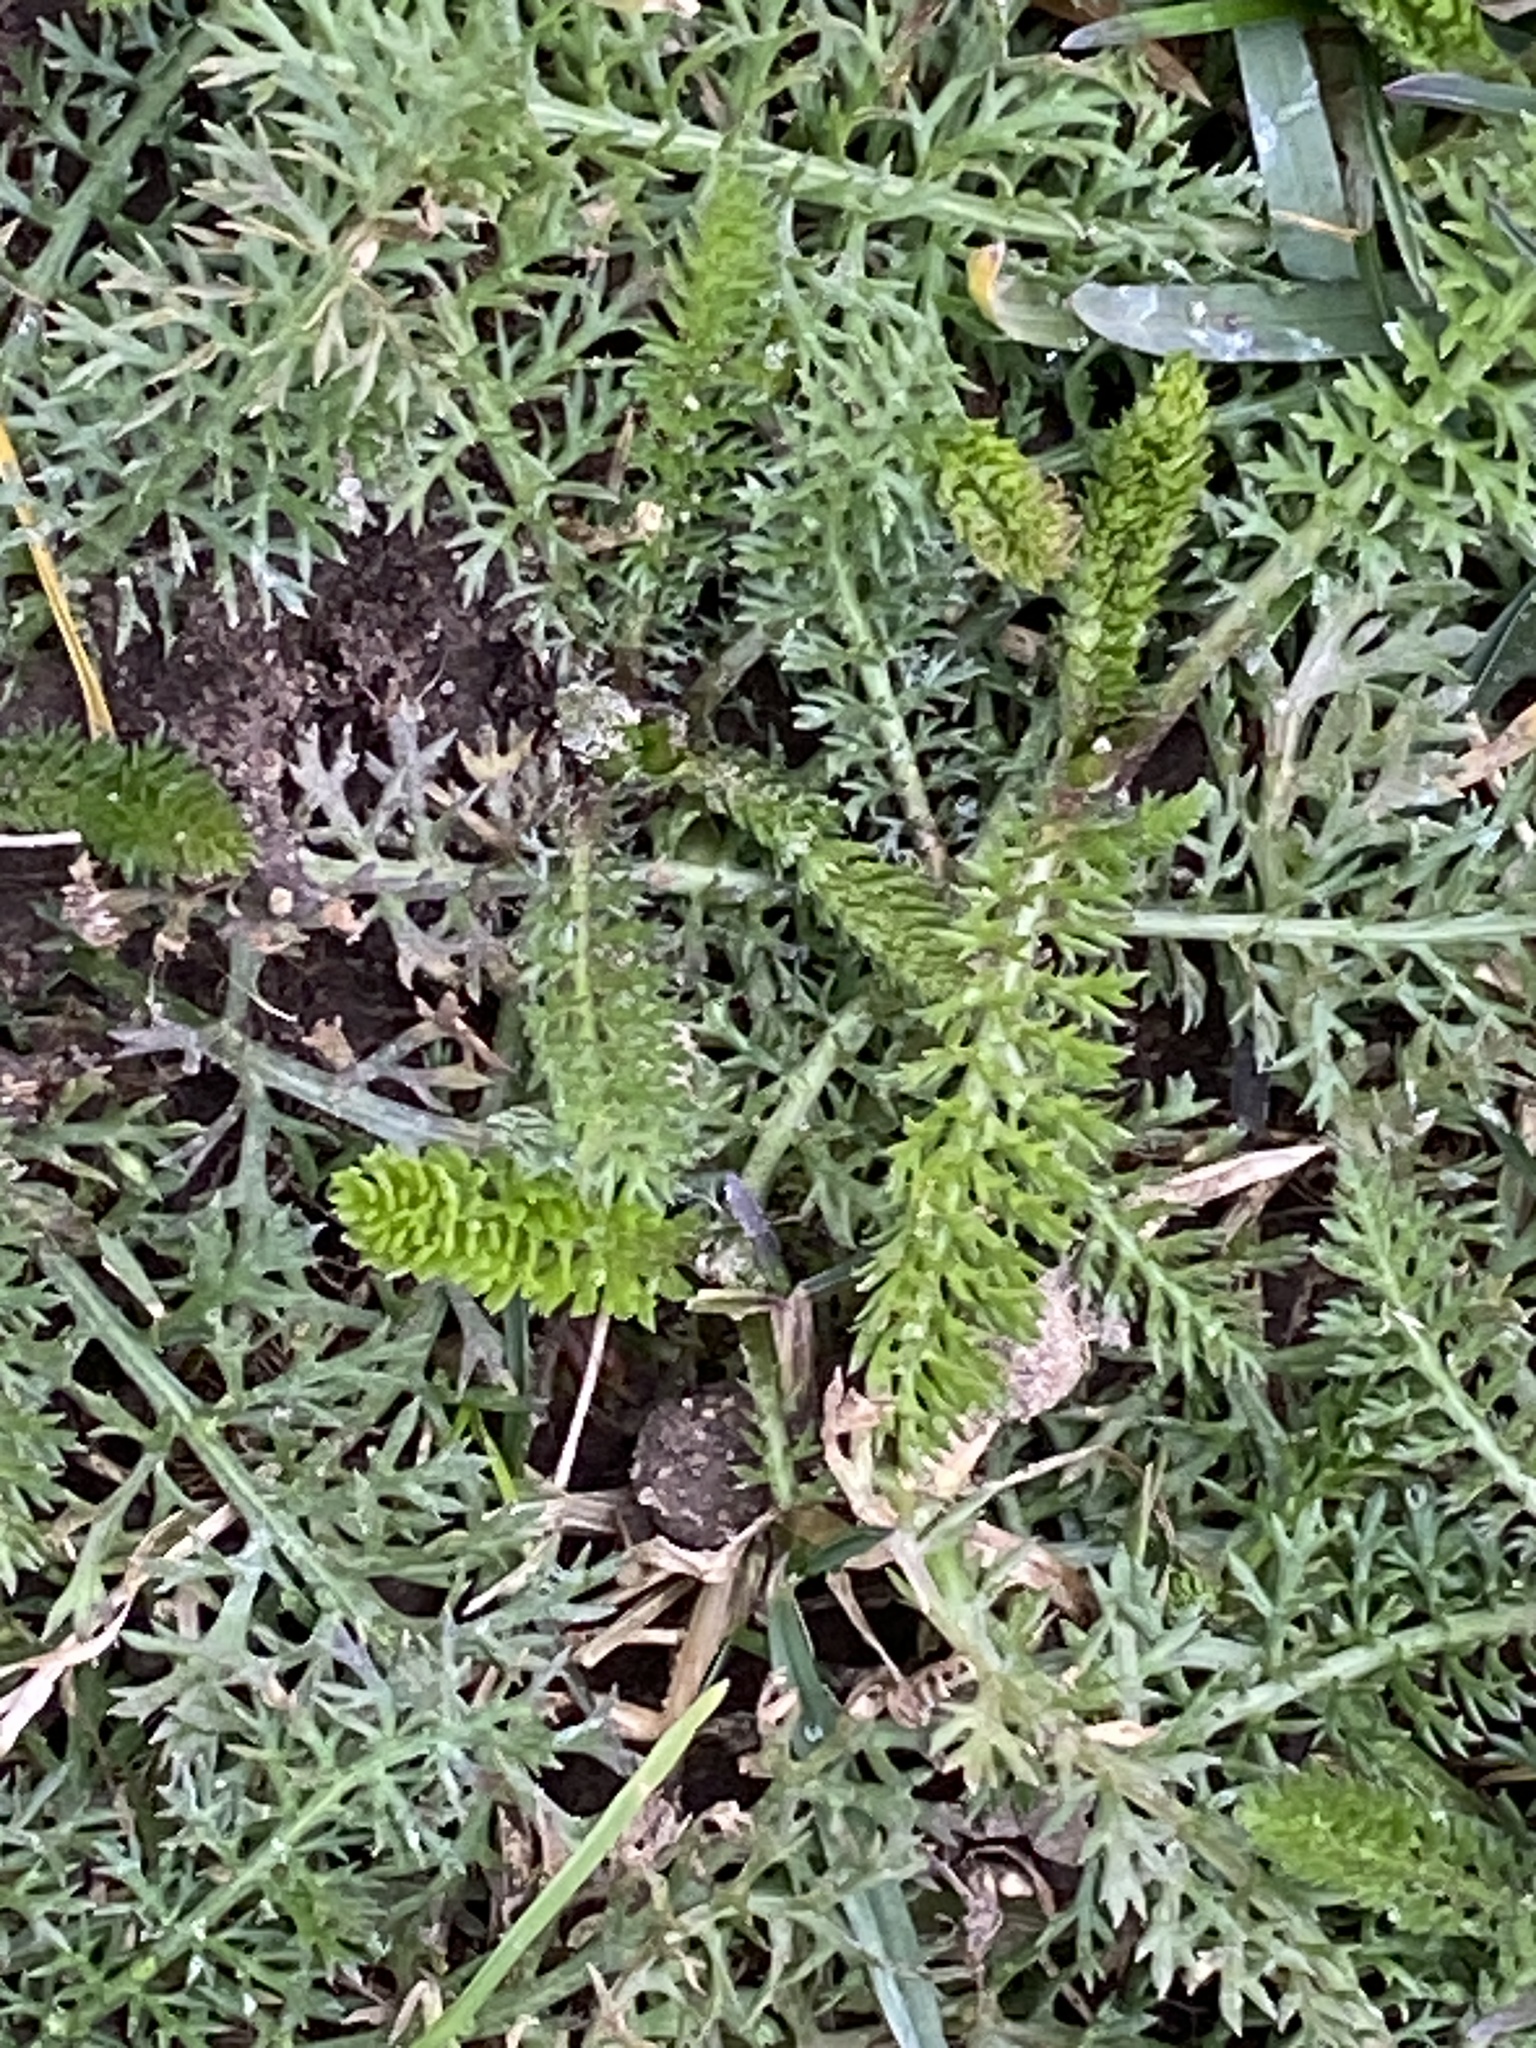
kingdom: Plantae
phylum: Tracheophyta
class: Magnoliopsida
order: Asterales
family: Asteraceae
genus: Achillea
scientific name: Achillea millefolium
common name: Yarrow
